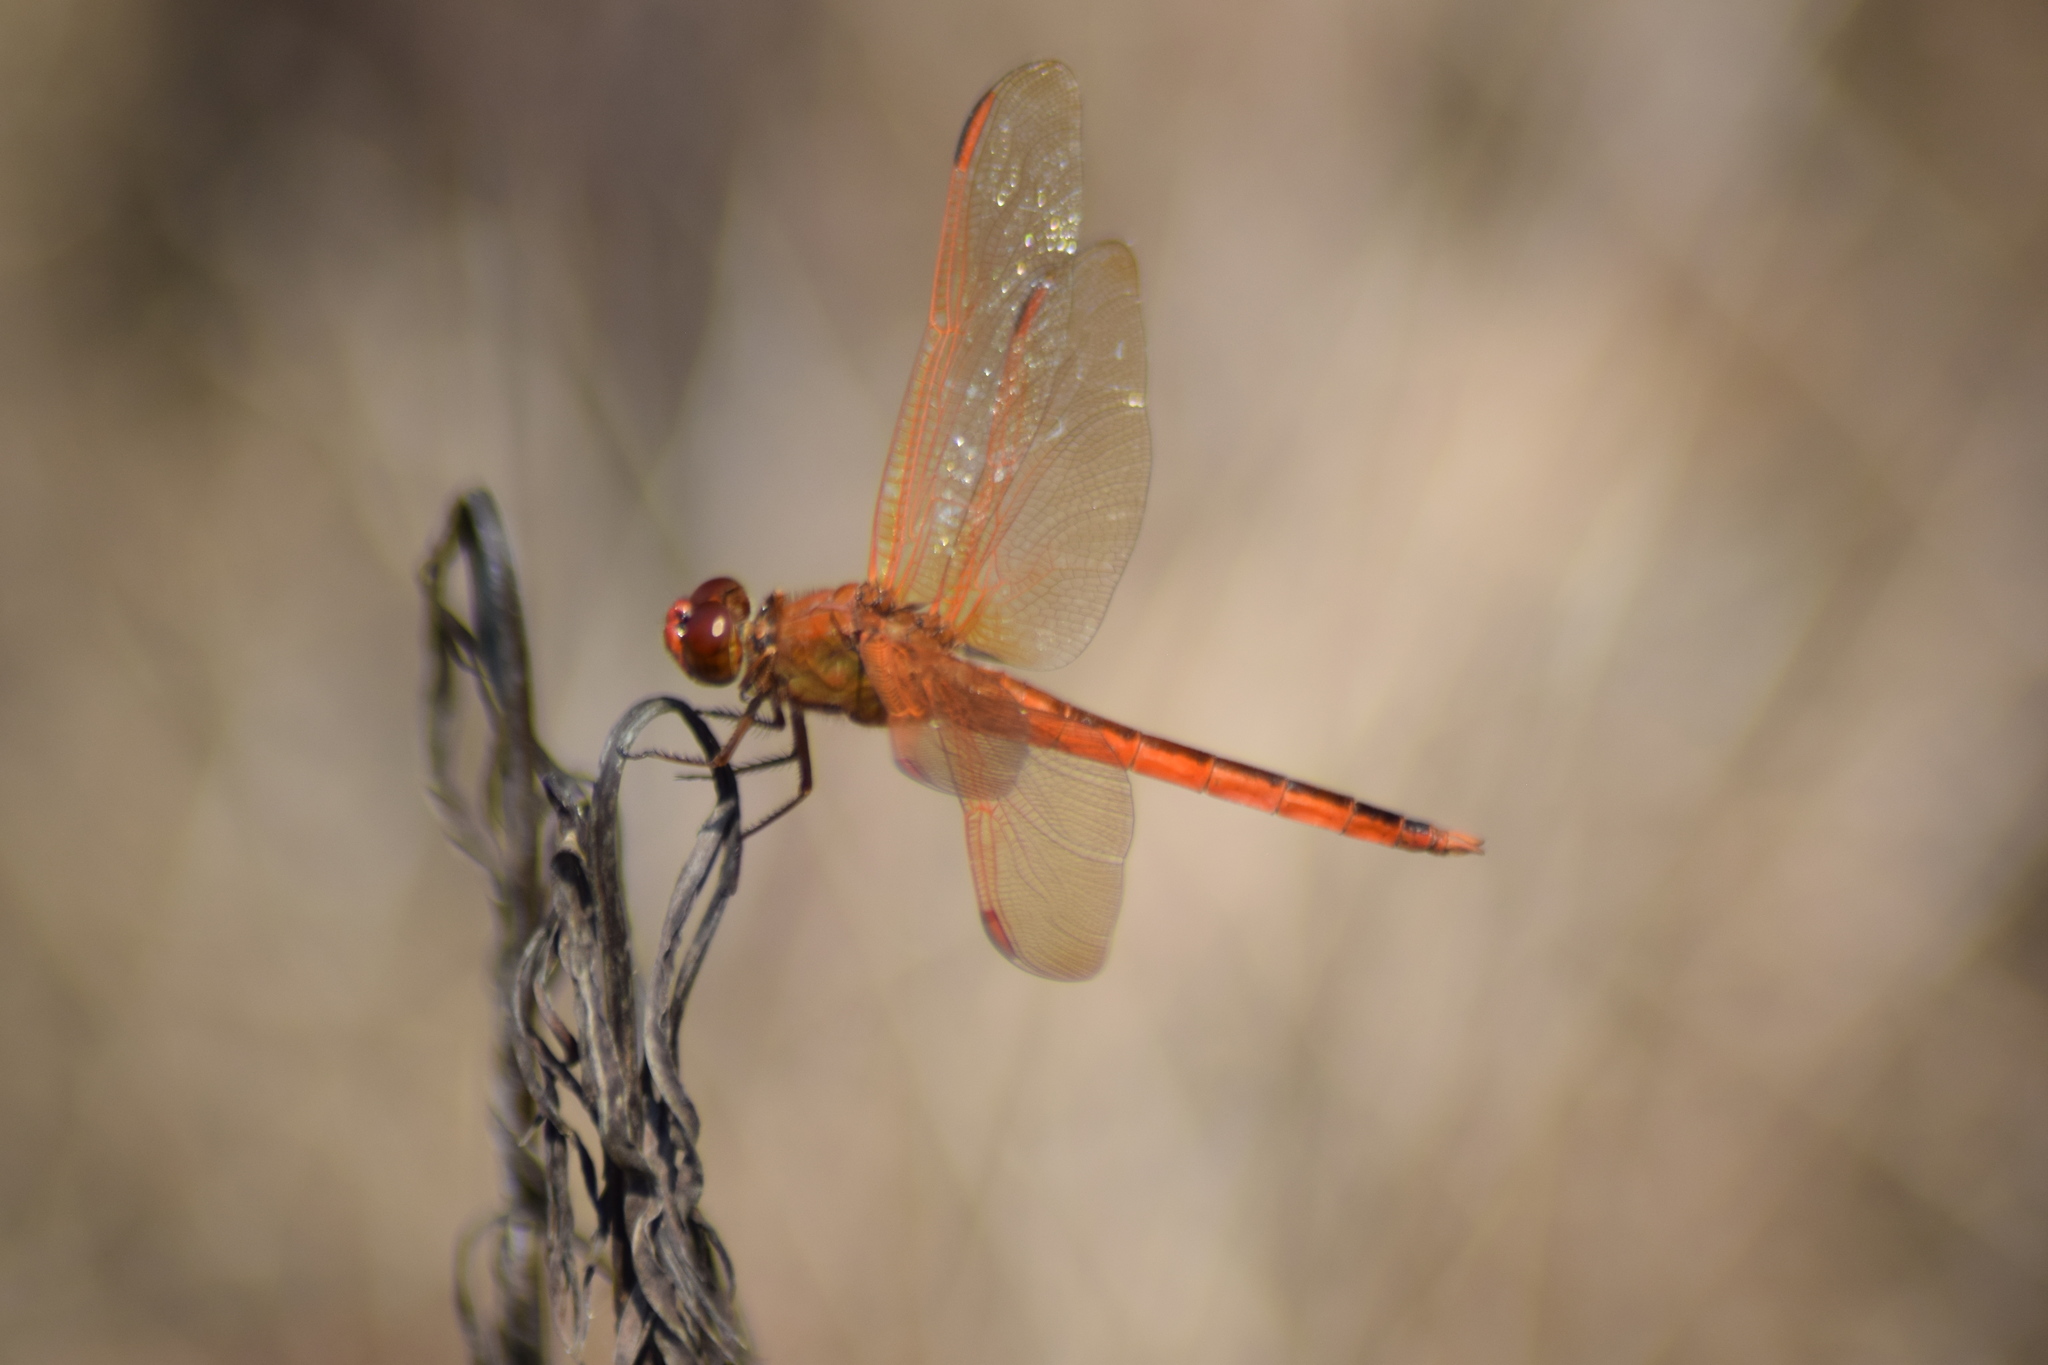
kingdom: Animalia
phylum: Arthropoda
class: Insecta
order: Odonata
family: Libellulidae
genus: Libellula
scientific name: Libellula needhami
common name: Needham's skimmer
